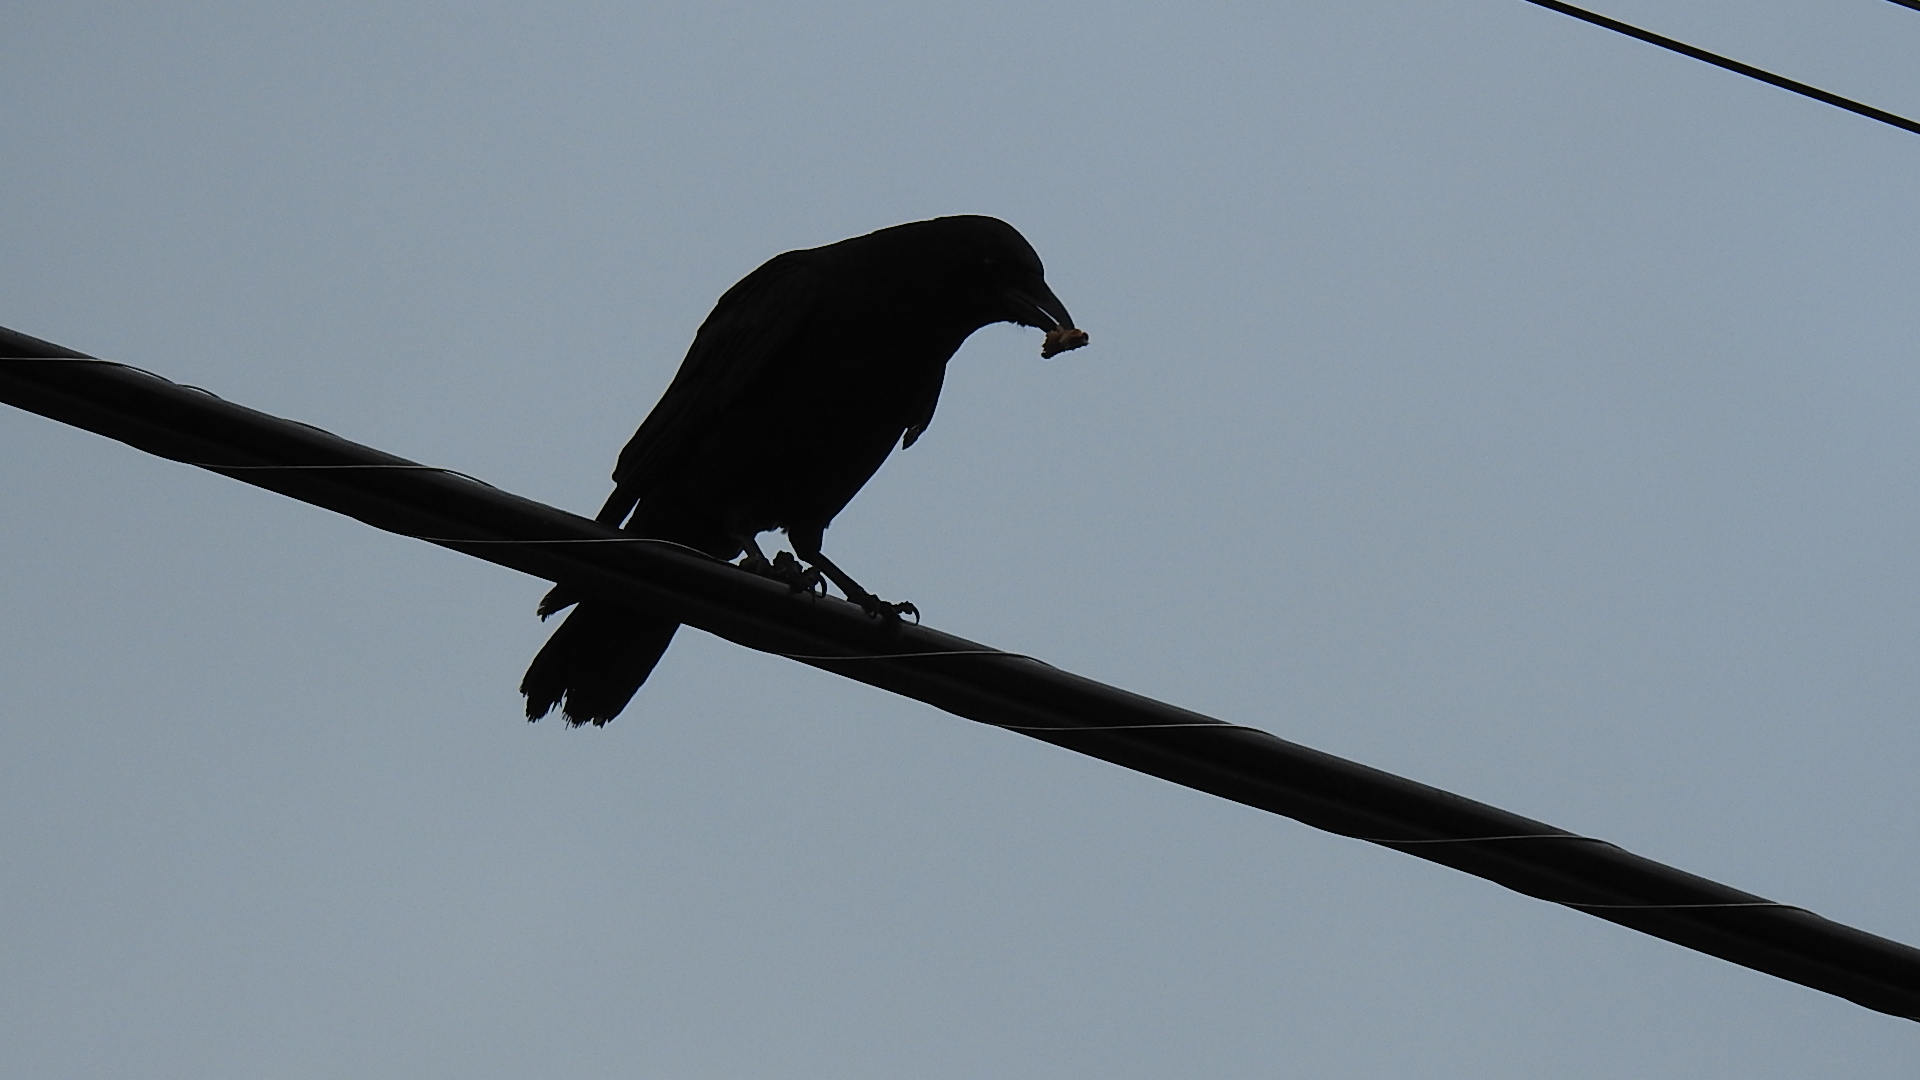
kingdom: Animalia
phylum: Chordata
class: Aves
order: Passeriformes
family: Corvidae
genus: Corvus
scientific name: Corvus brachyrhynchos
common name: American crow
